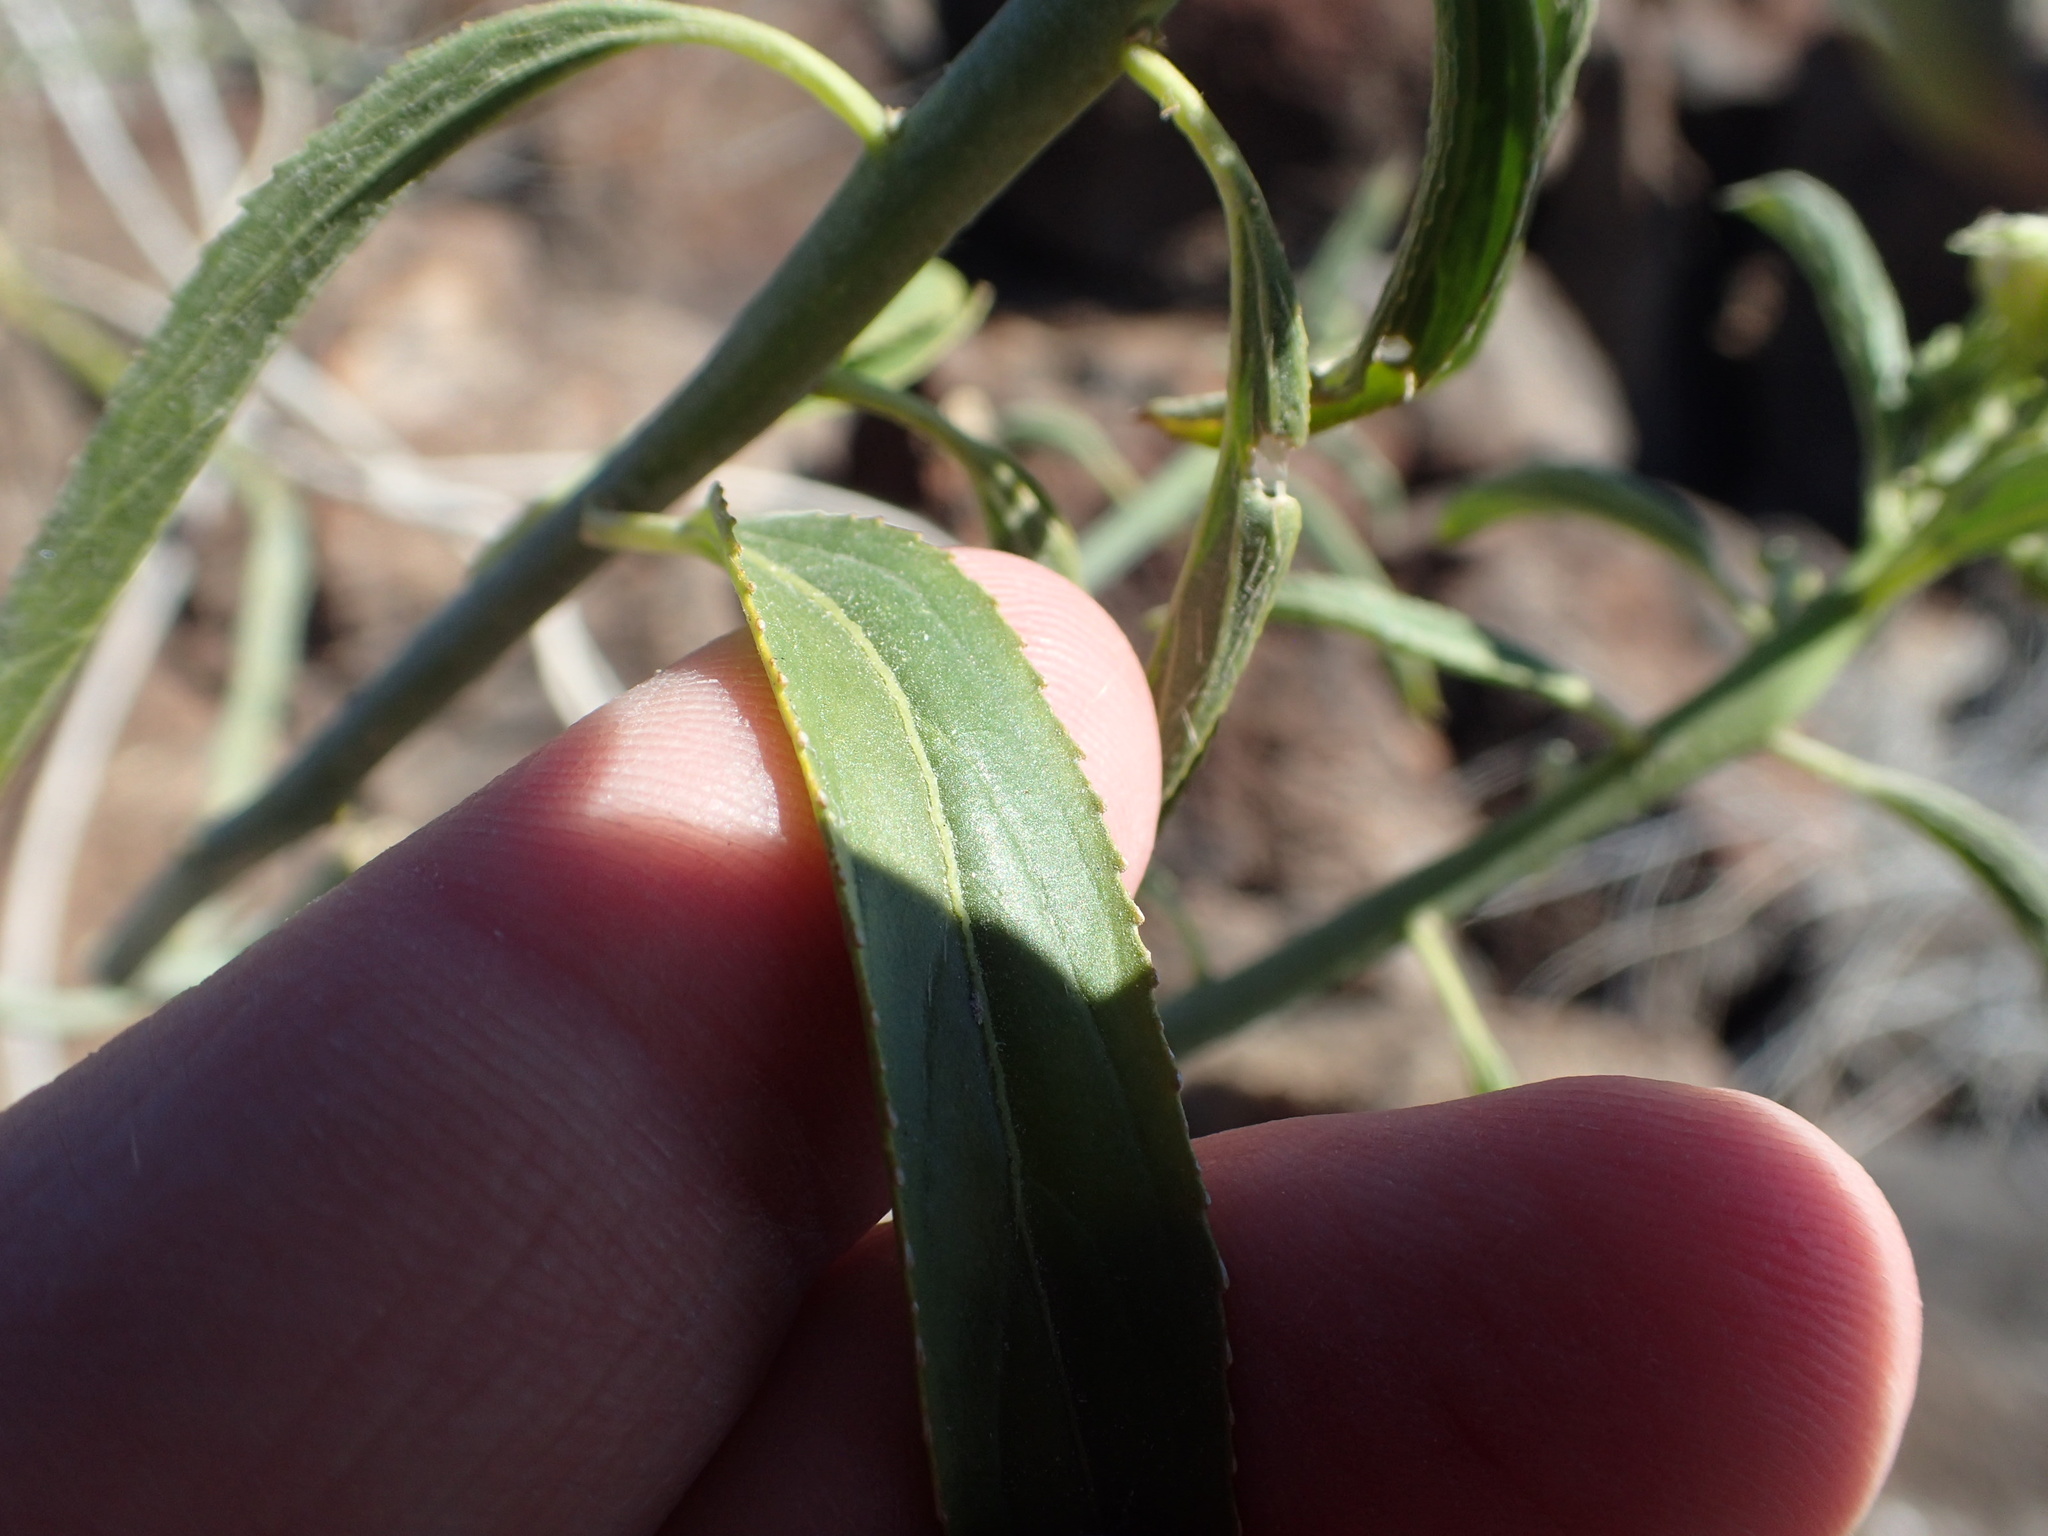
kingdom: Plantae
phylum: Tracheophyta
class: Magnoliopsida
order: Malpighiales
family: Euphorbiaceae
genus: Ditaxis
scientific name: Ditaxis brandegeei
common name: Sonoran silverbush
